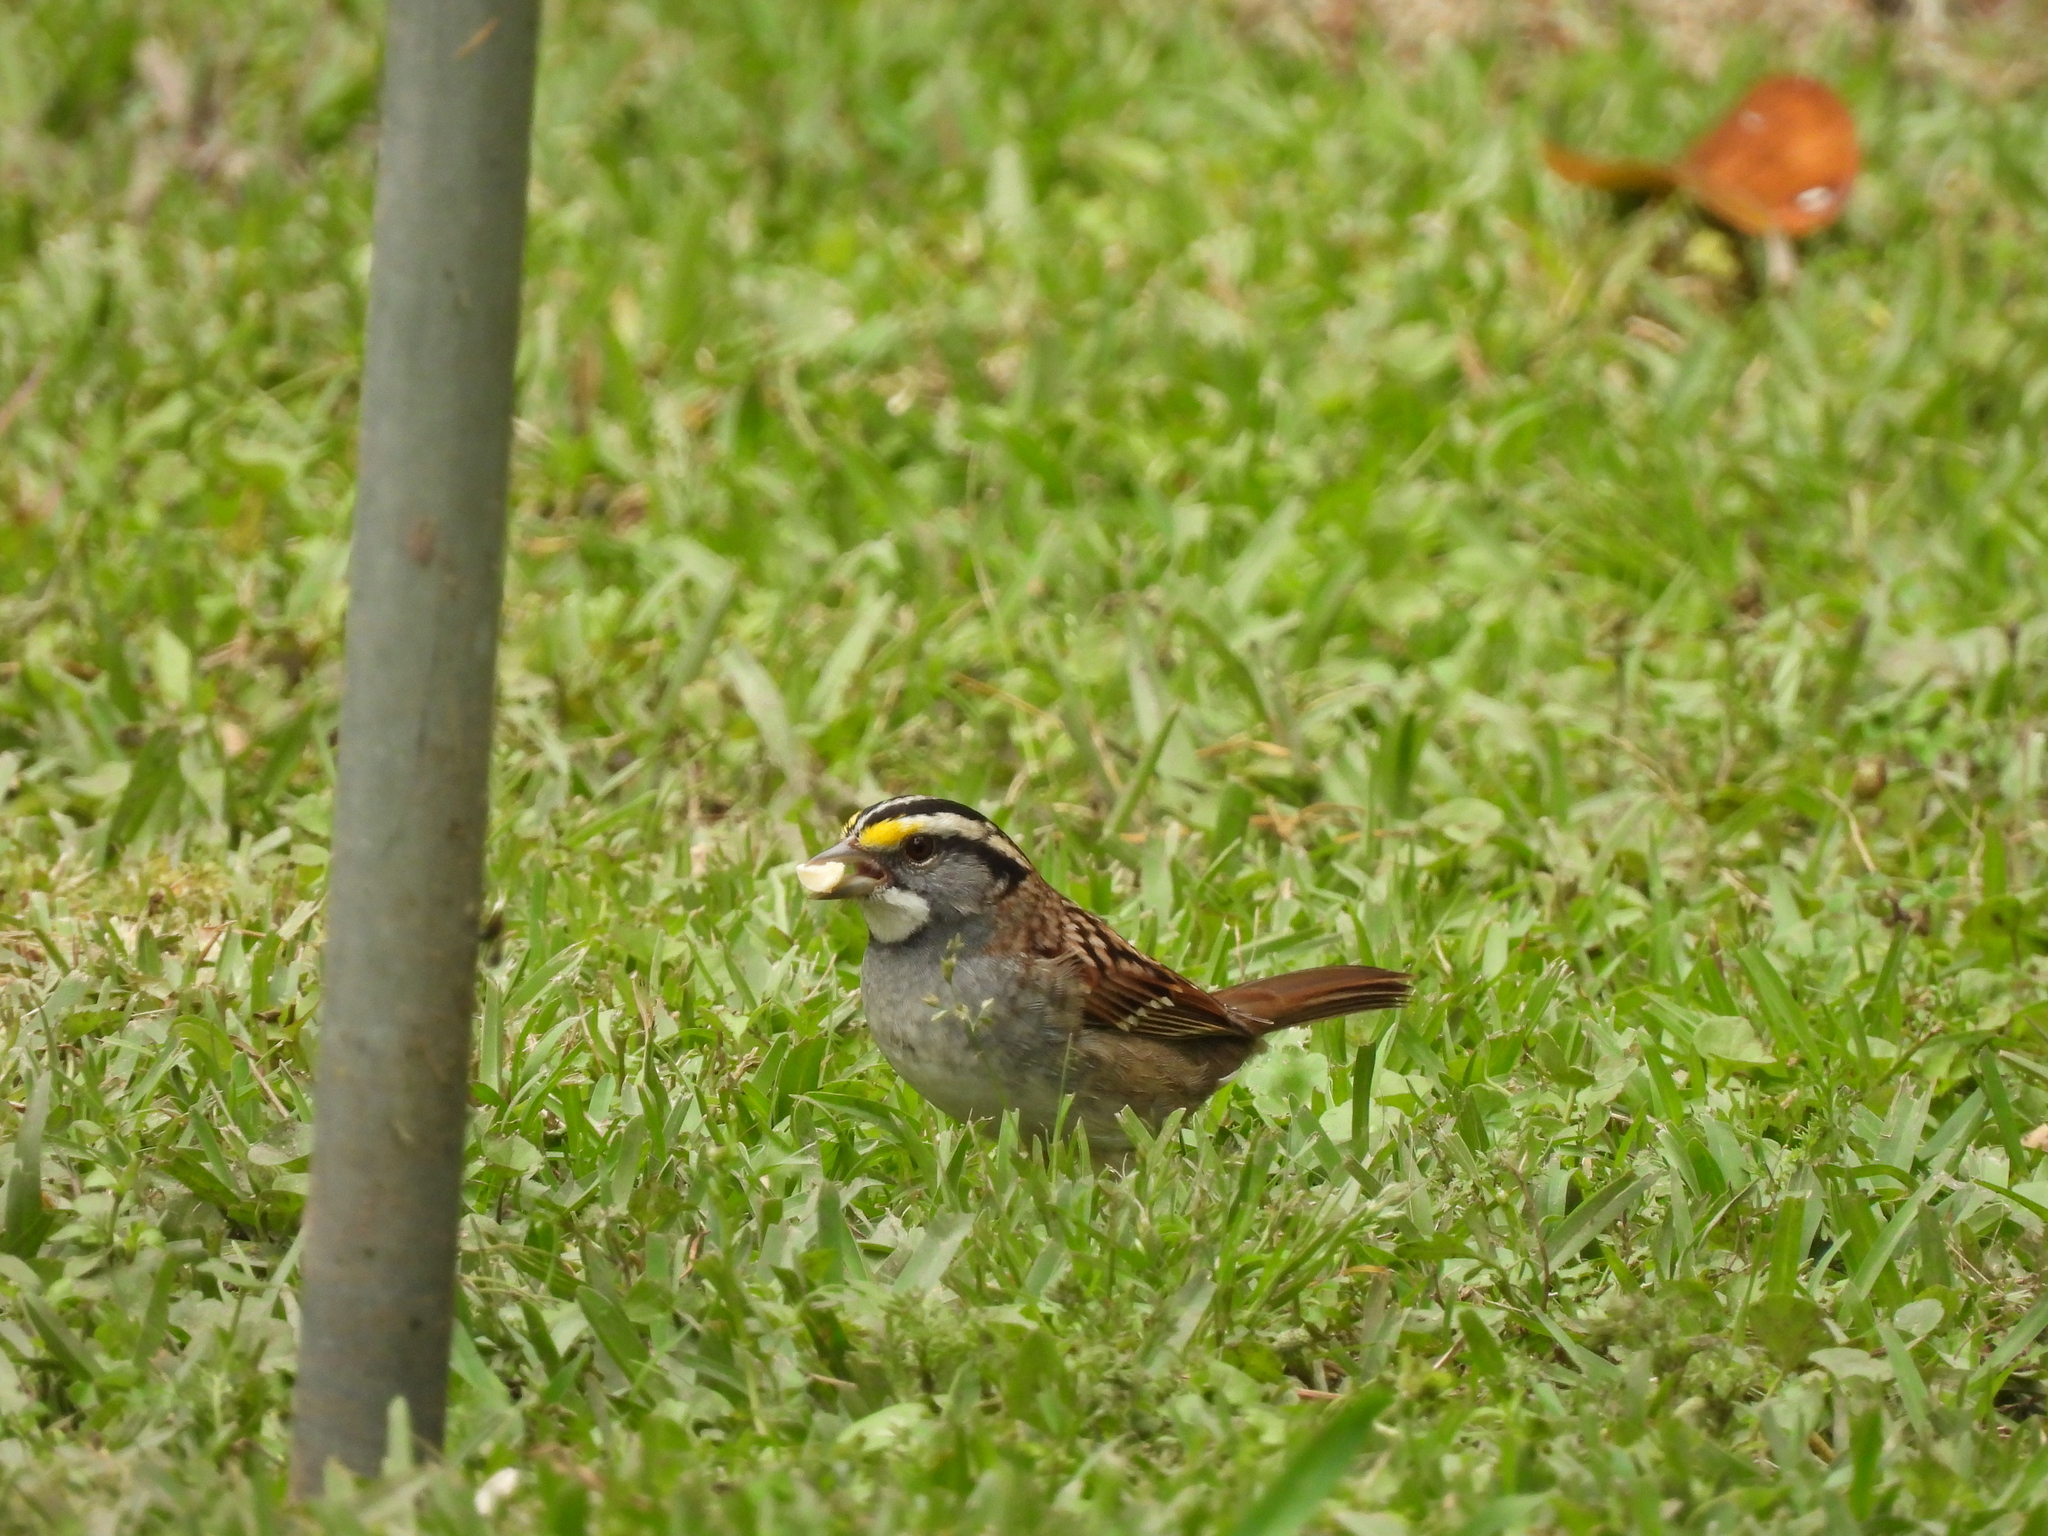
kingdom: Animalia
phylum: Chordata
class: Aves
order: Passeriformes
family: Passerellidae
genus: Zonotrichia
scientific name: Zonotrichia albicollis
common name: White-throated sparrow
